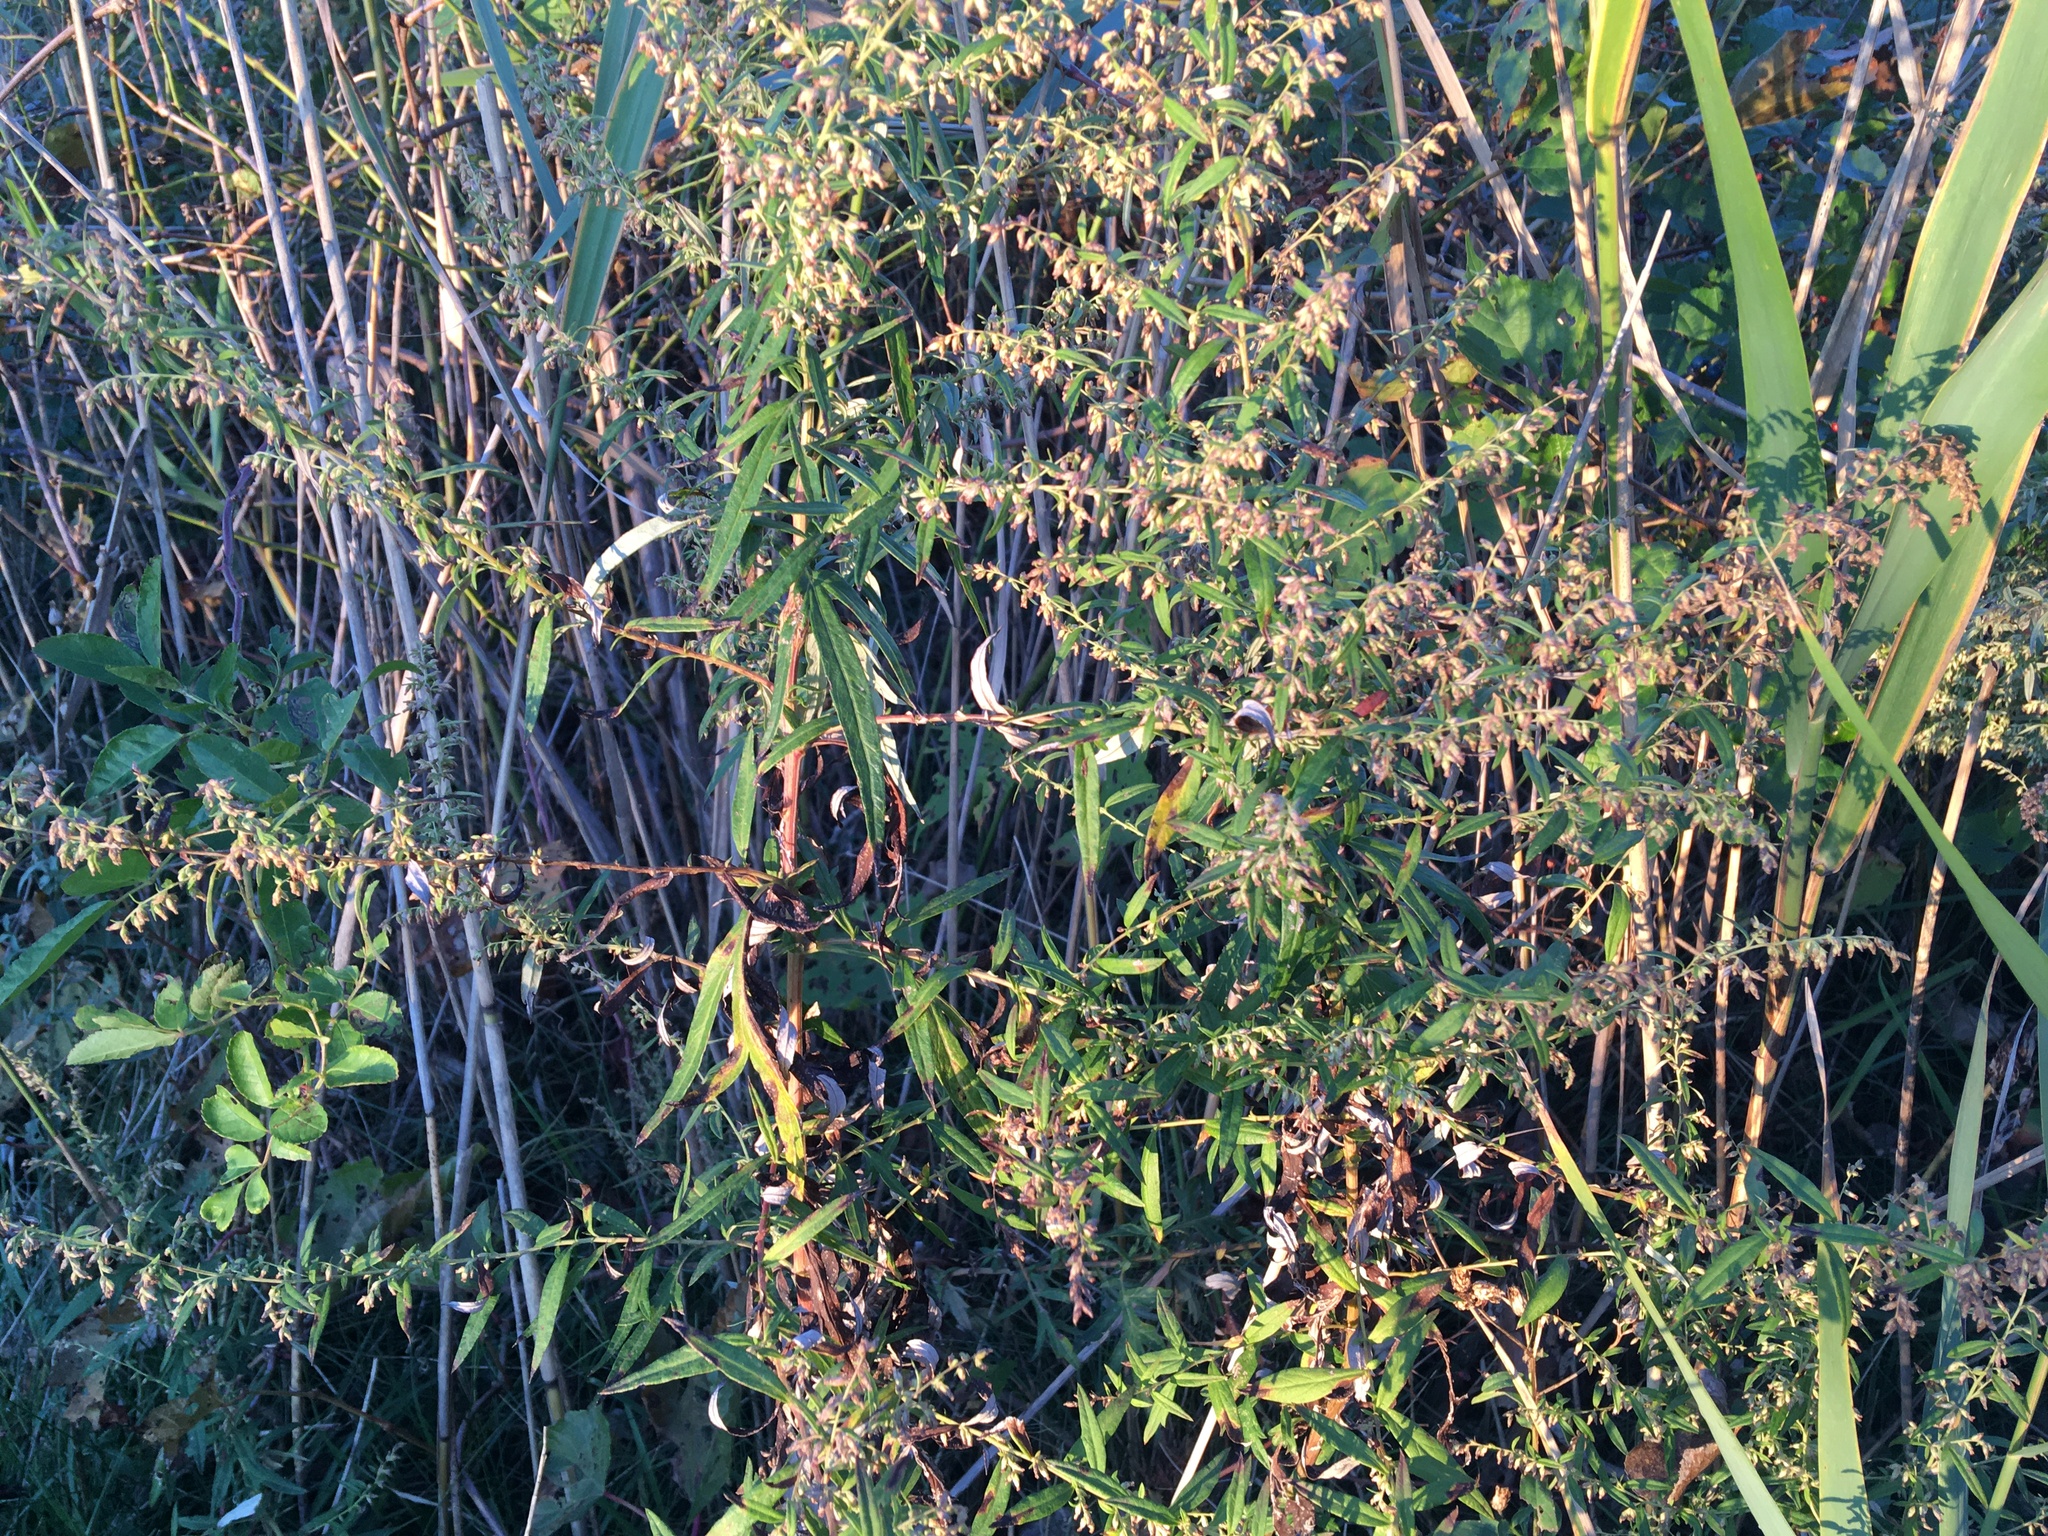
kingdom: Plantae
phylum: Tracheophyta
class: Magnoliopsida
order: Asterales
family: Asteraceae
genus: Artemisia
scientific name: Artemisia vulgaris
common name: Mugwort
